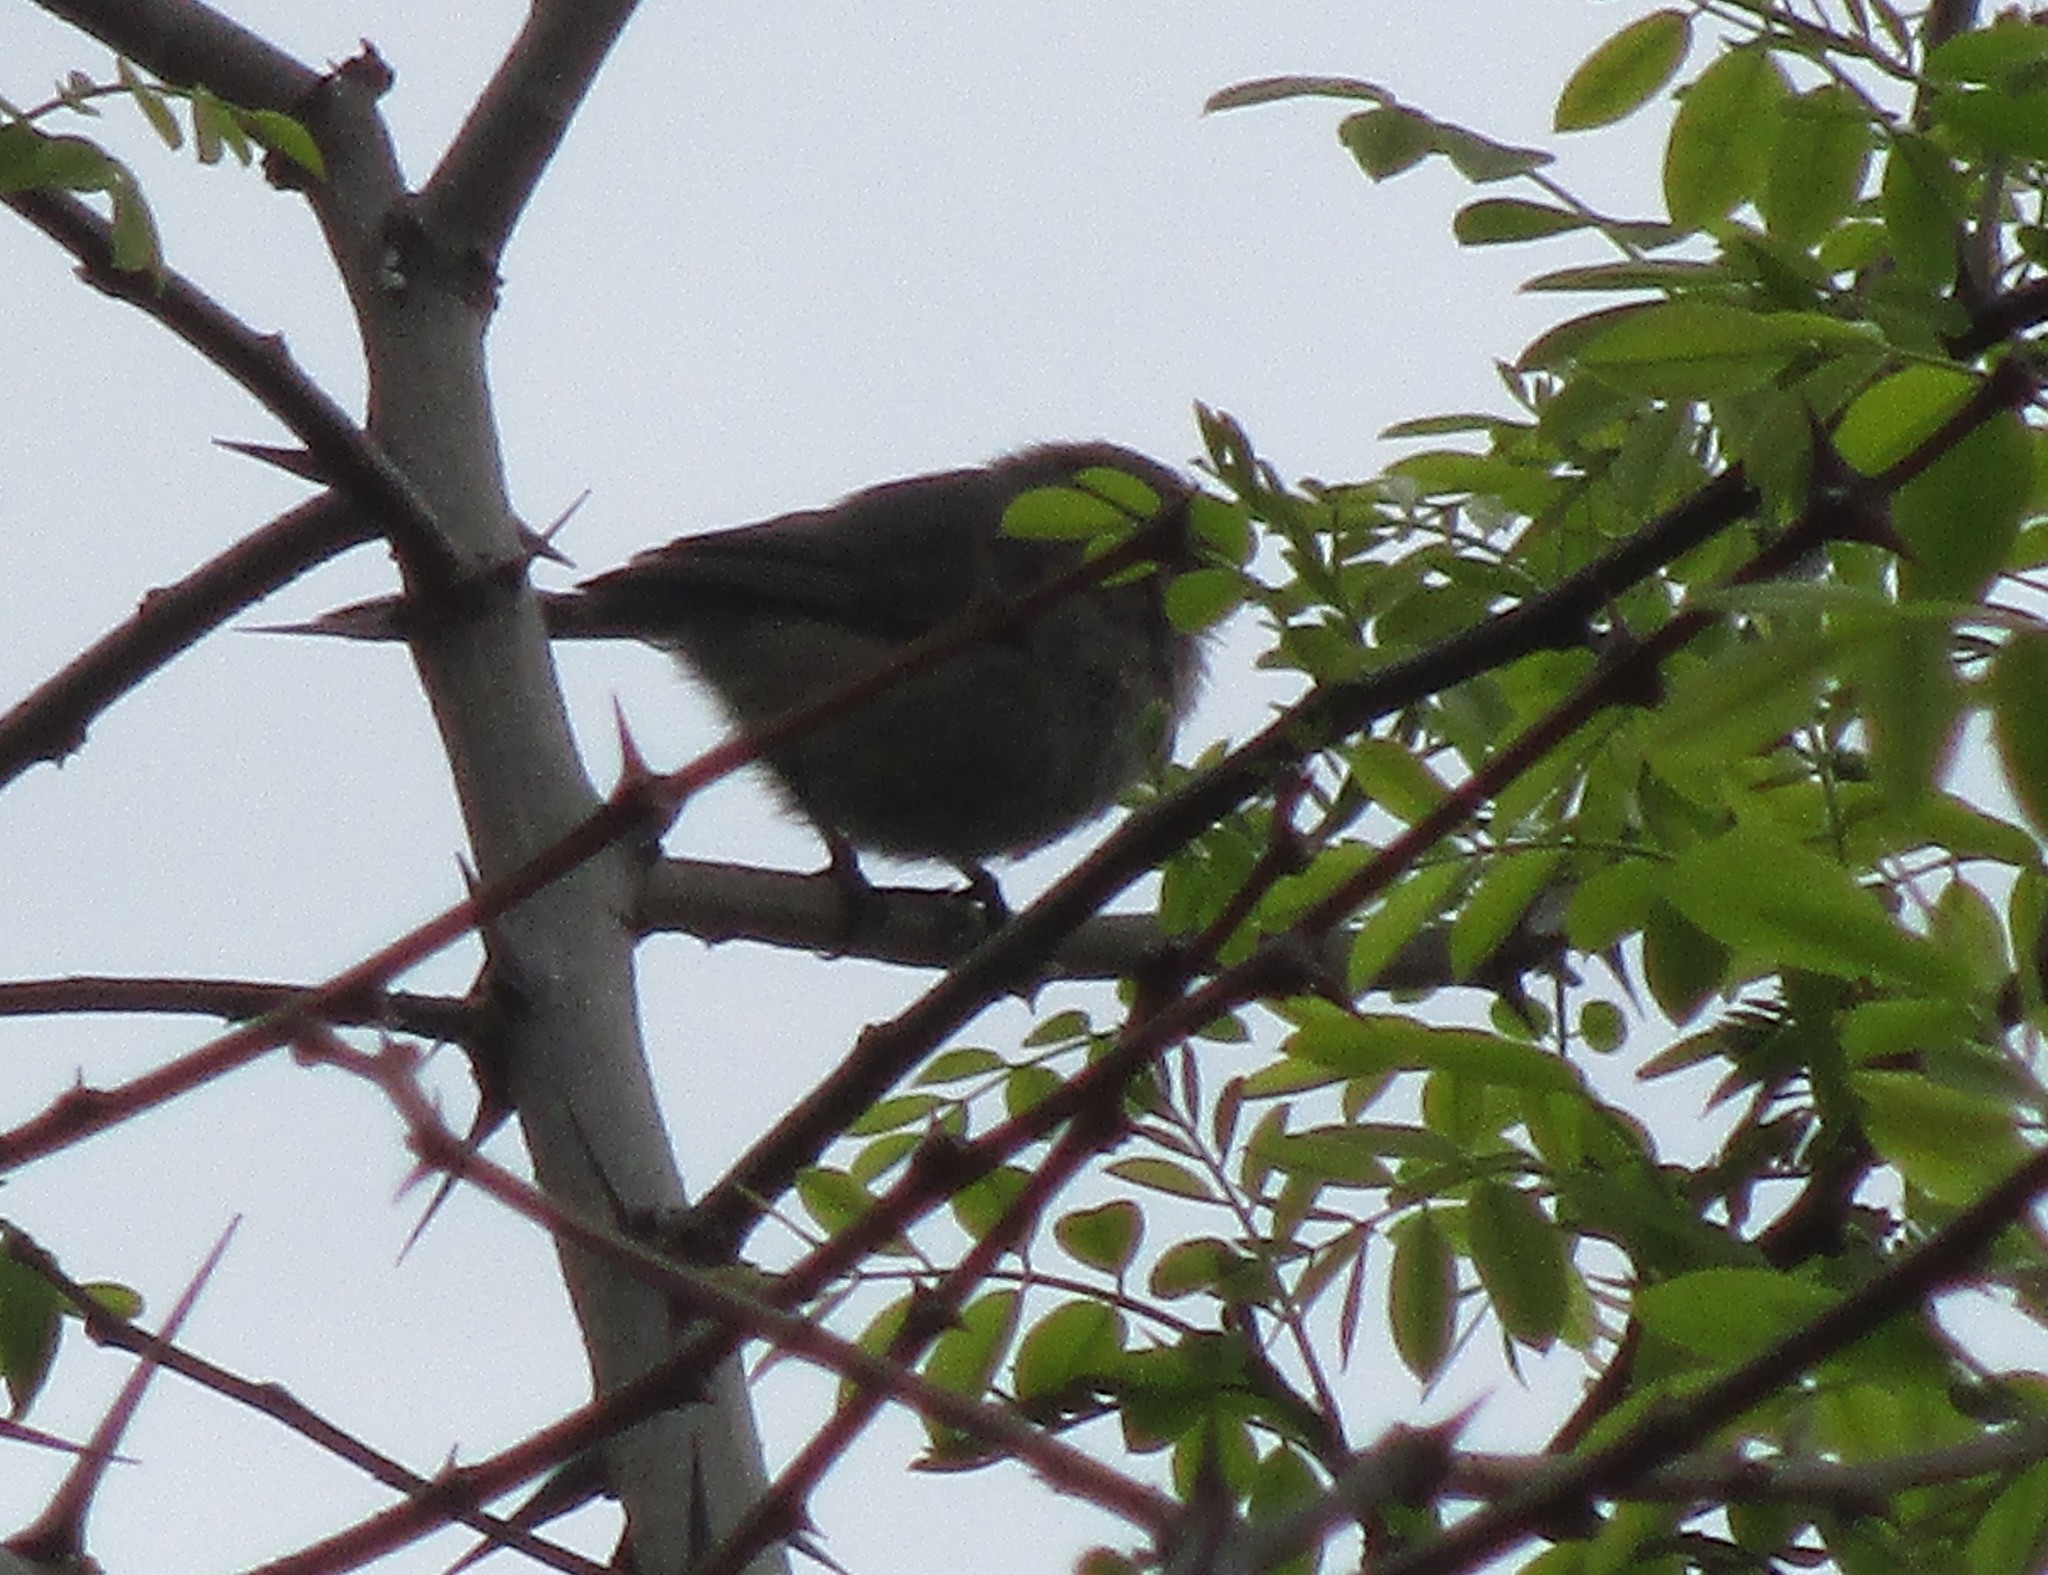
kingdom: Animalia
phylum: Chordata
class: Aves
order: Passeriformes
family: Aegithalidae
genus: Psaltriparus
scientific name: Psaltriparus minimus
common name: American bushtit
